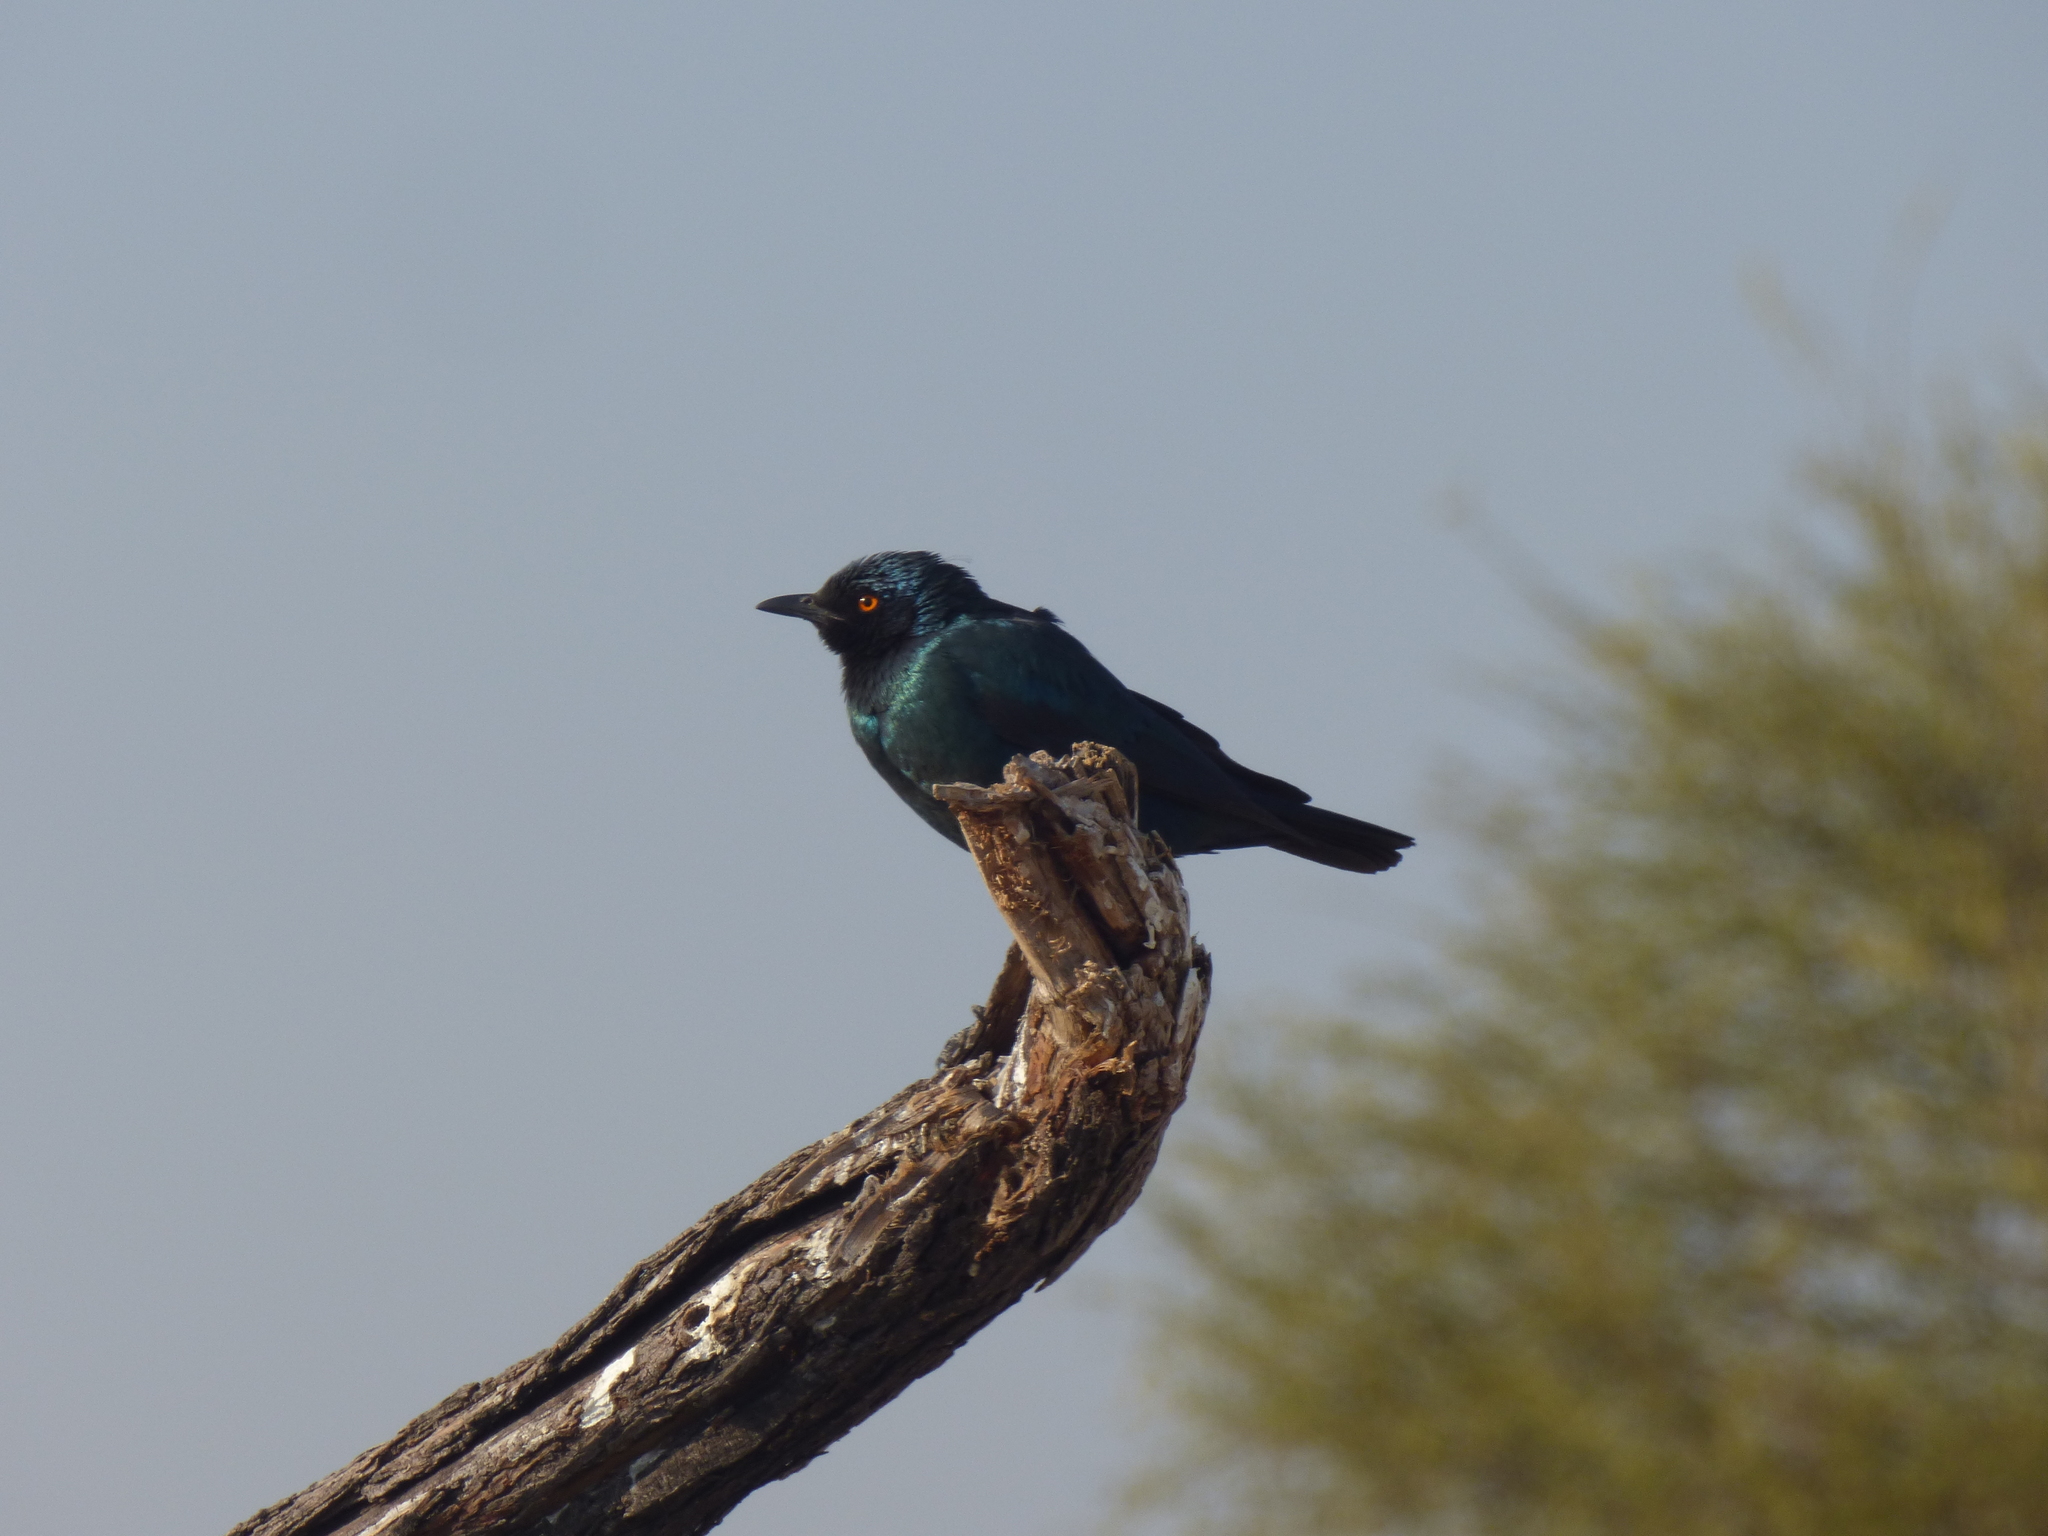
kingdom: Animalia
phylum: Chordata
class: Aves
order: Passeriformes
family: Sturnidae
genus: Lamprotornis
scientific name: Lamprotornis nitens
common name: Cape starling
